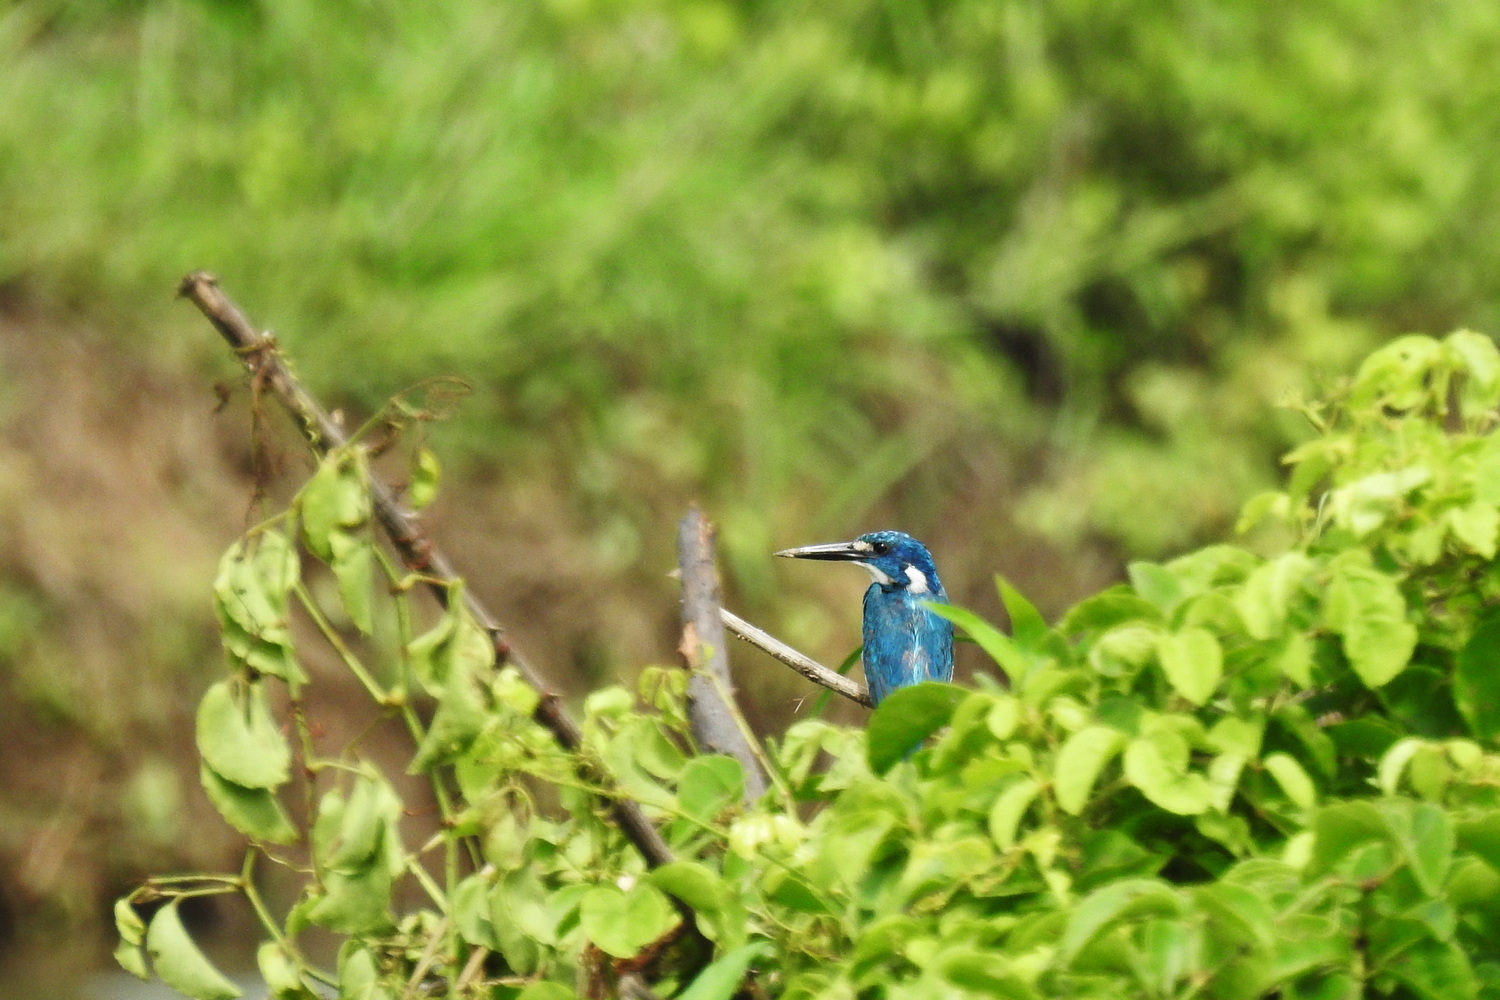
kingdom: Animalia
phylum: Chordata
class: Aves
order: Coraciiformes
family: Alcedinidae
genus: Alcedo
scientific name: Alcedo coerulescens
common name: Cerulean kingfisher
